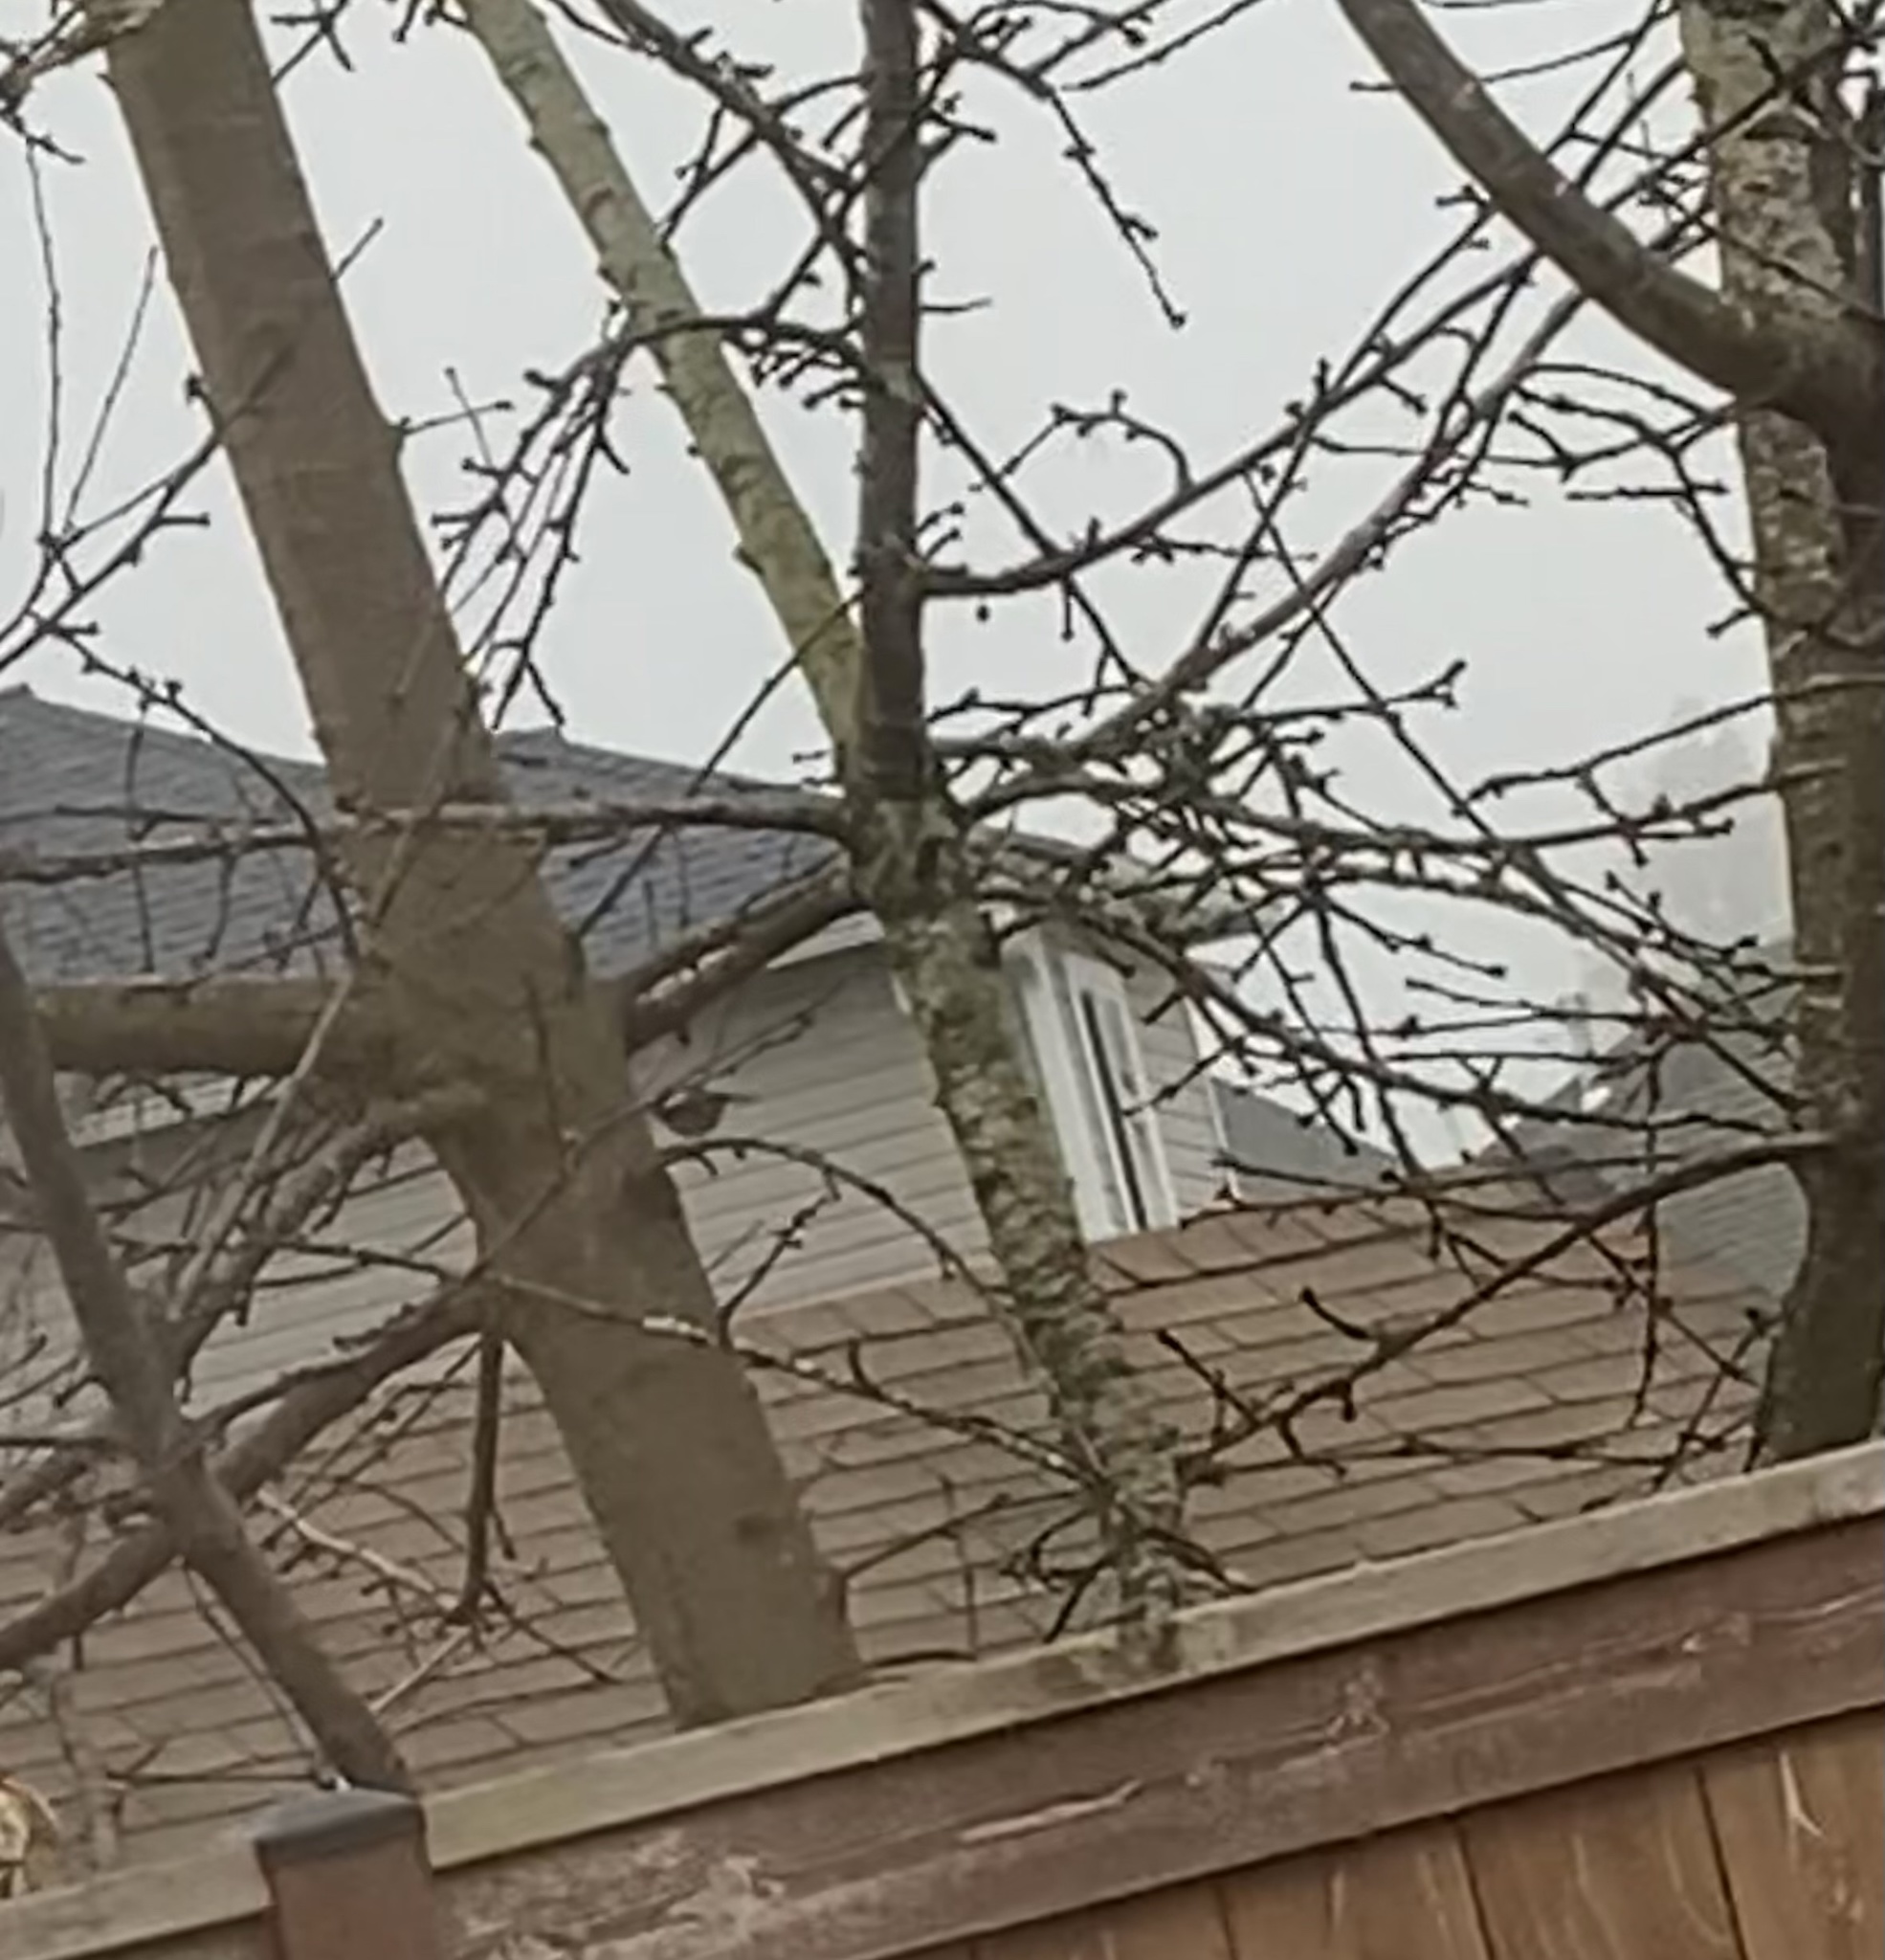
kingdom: Animalia
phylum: Chordata
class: Aves
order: Passeriformes
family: Paridae
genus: Poecile
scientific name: Poecile atricapillus
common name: Black-capped chickadee
